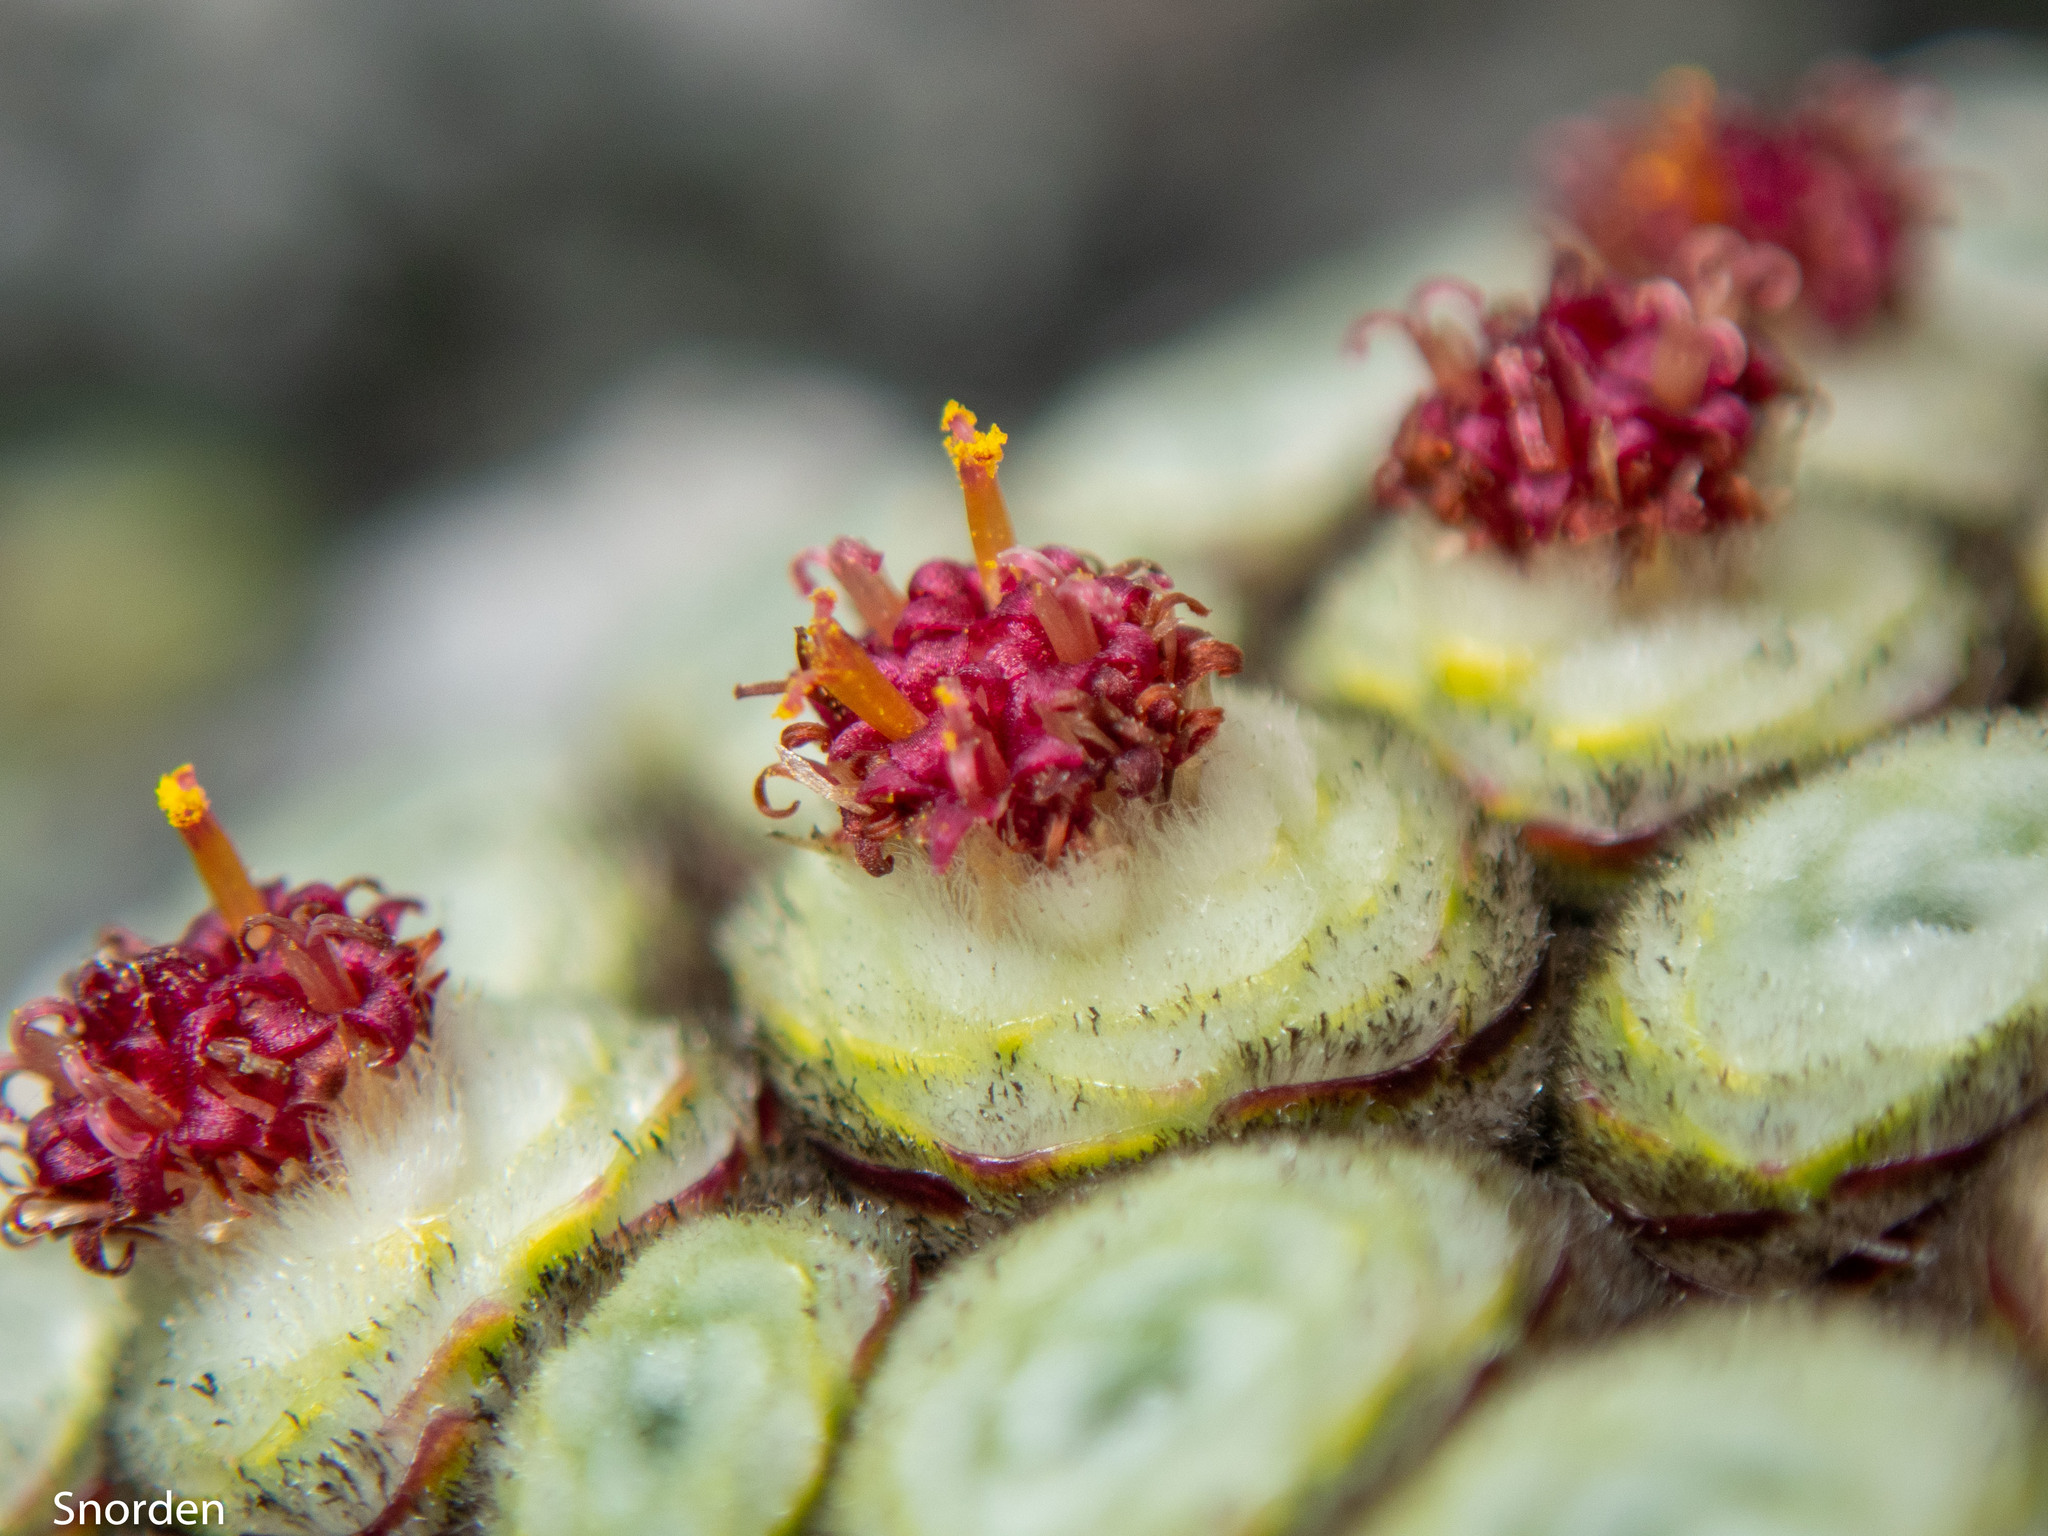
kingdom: Plantae
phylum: Tracheophyta
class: Magnoliopsida
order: Asterales
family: Asteraceae
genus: Raoulia
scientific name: Raoulia buchananii
